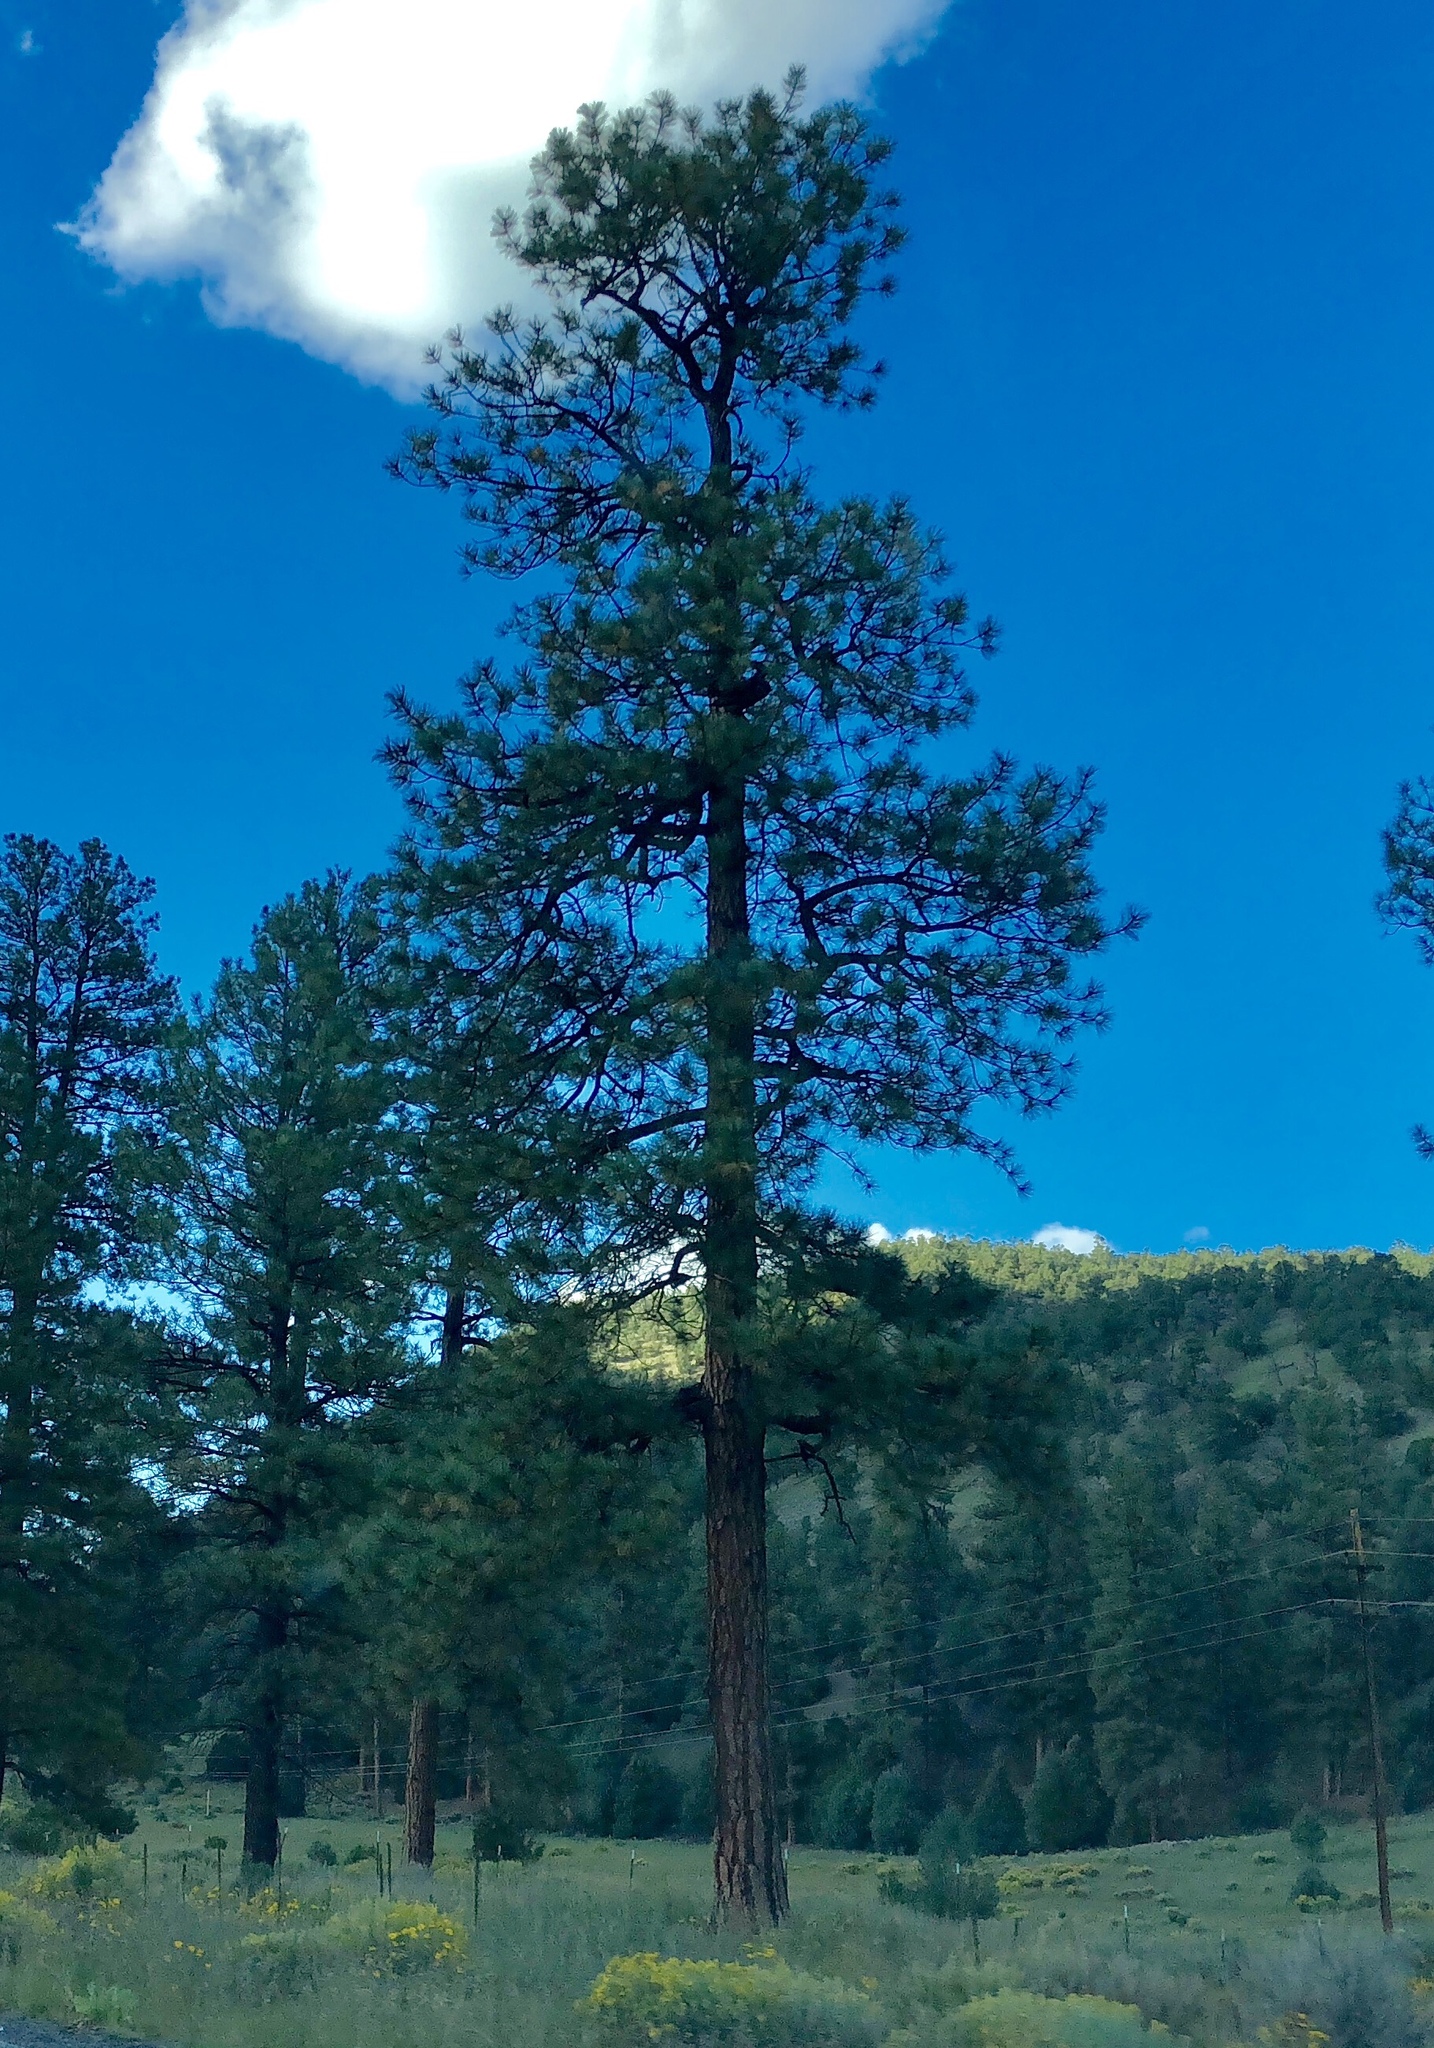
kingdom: Plantae
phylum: Tracheophyta
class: Pinopsida
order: Pinales
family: Pinaceae
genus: Pinus
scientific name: Pinus ponderosa
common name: Western yellow-pine
